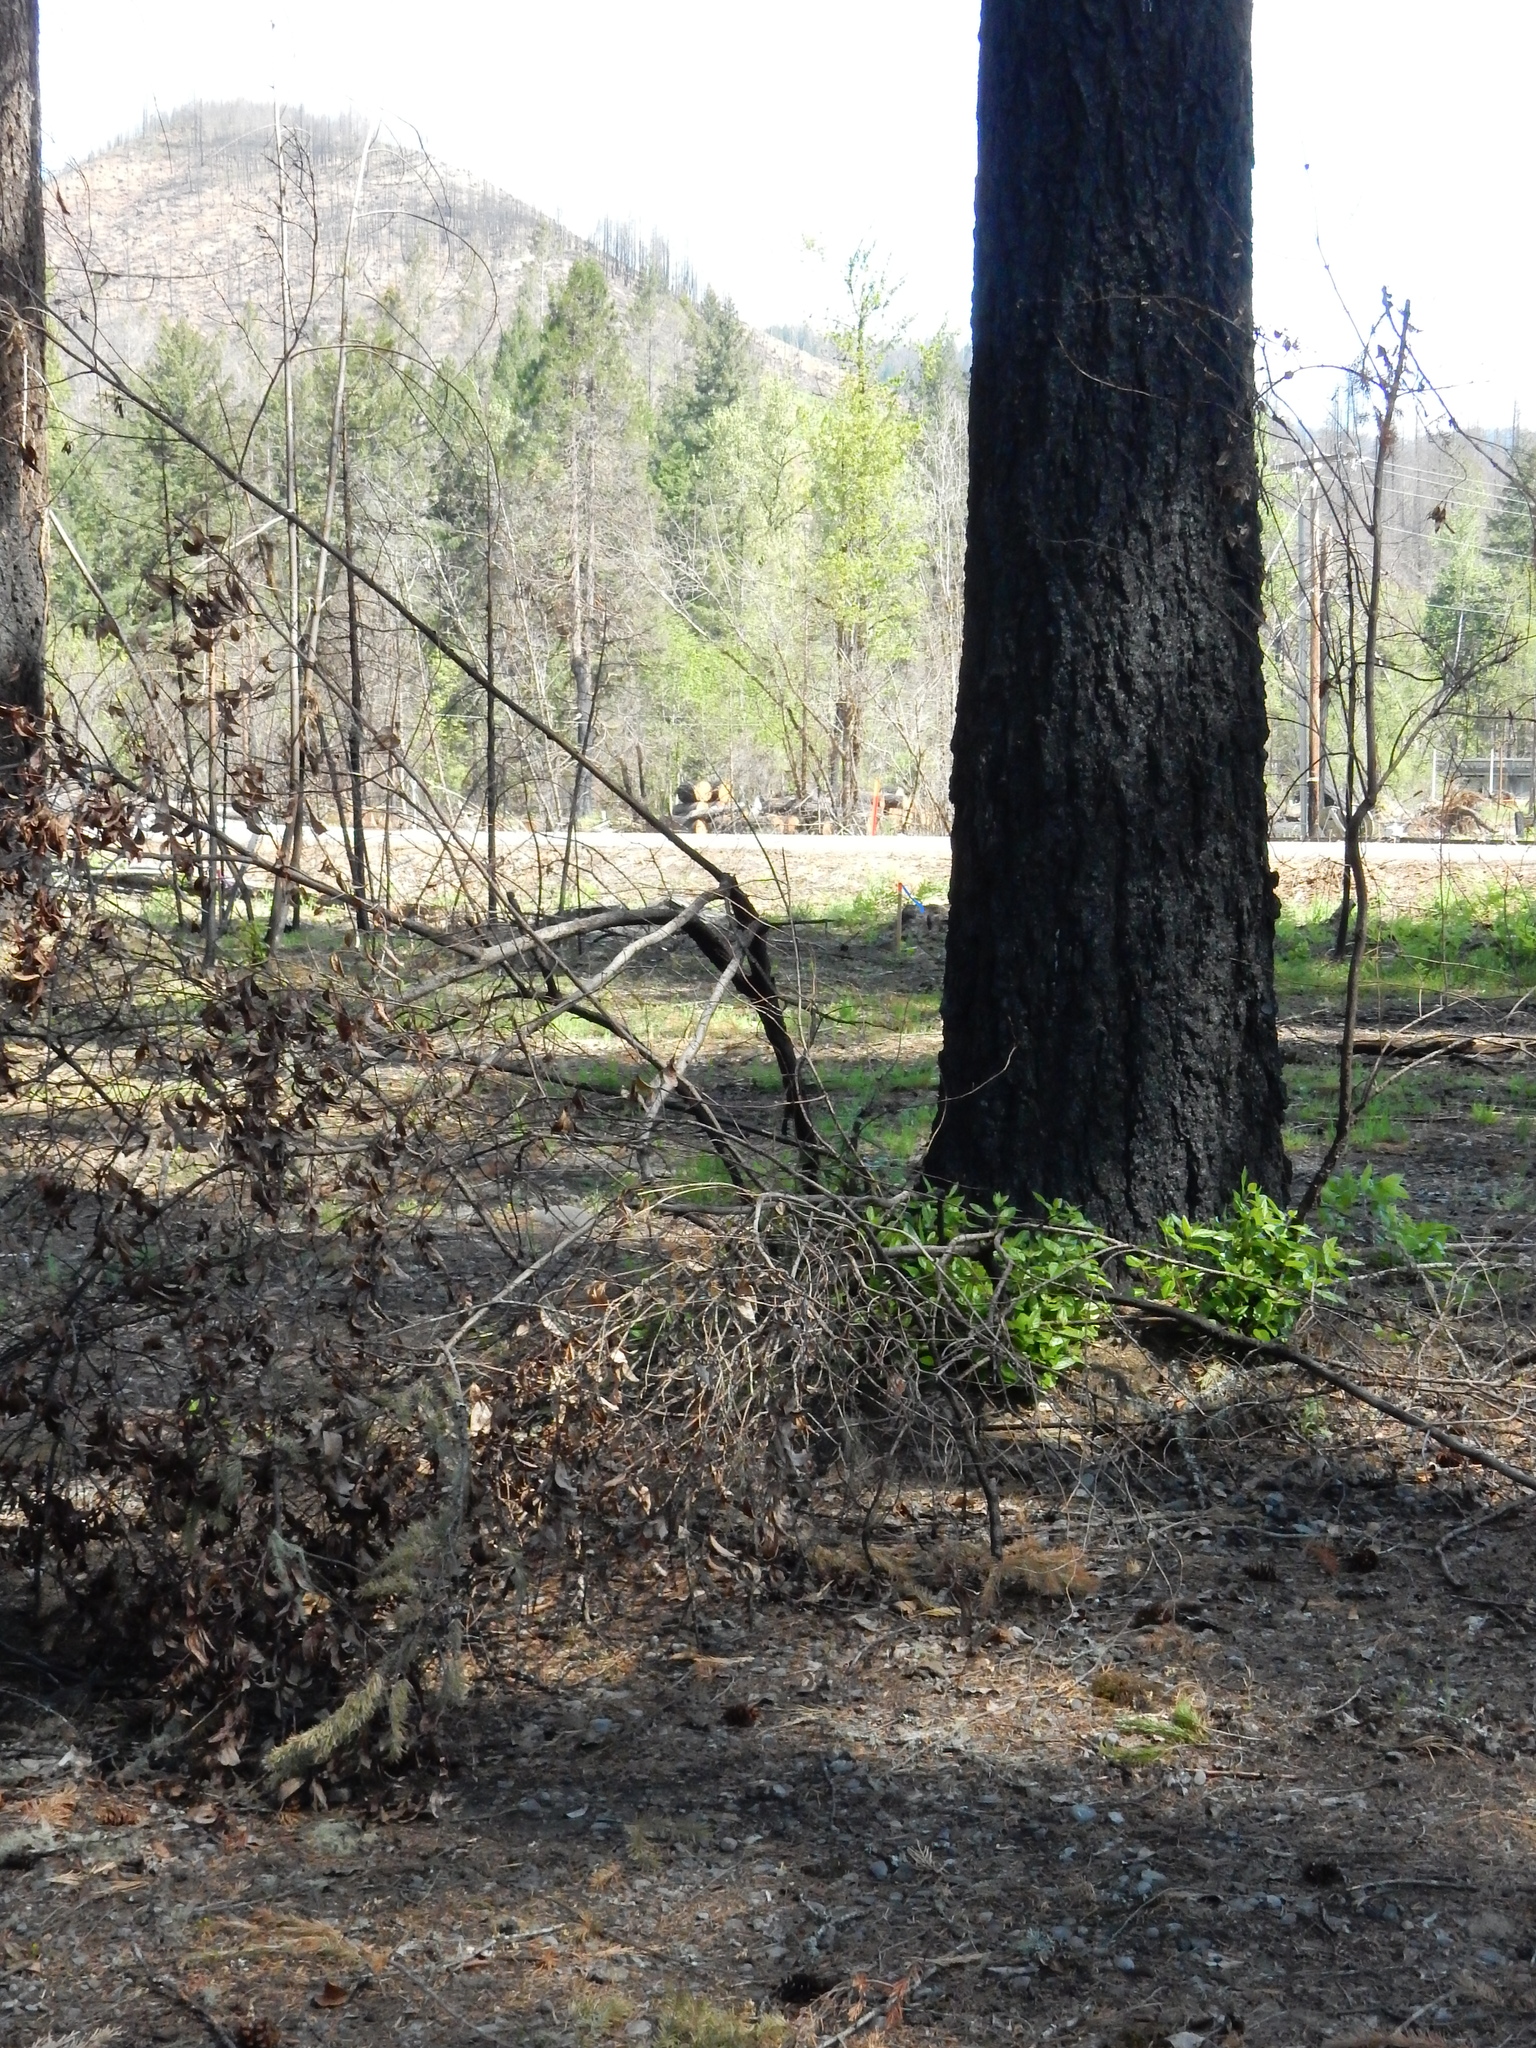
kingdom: Plantae
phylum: Tracheophyta
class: Magnoliopsida
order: Dipsacales
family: Viburnaceae
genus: Viburnum
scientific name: Viburnum tinus
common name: Laurustinus
